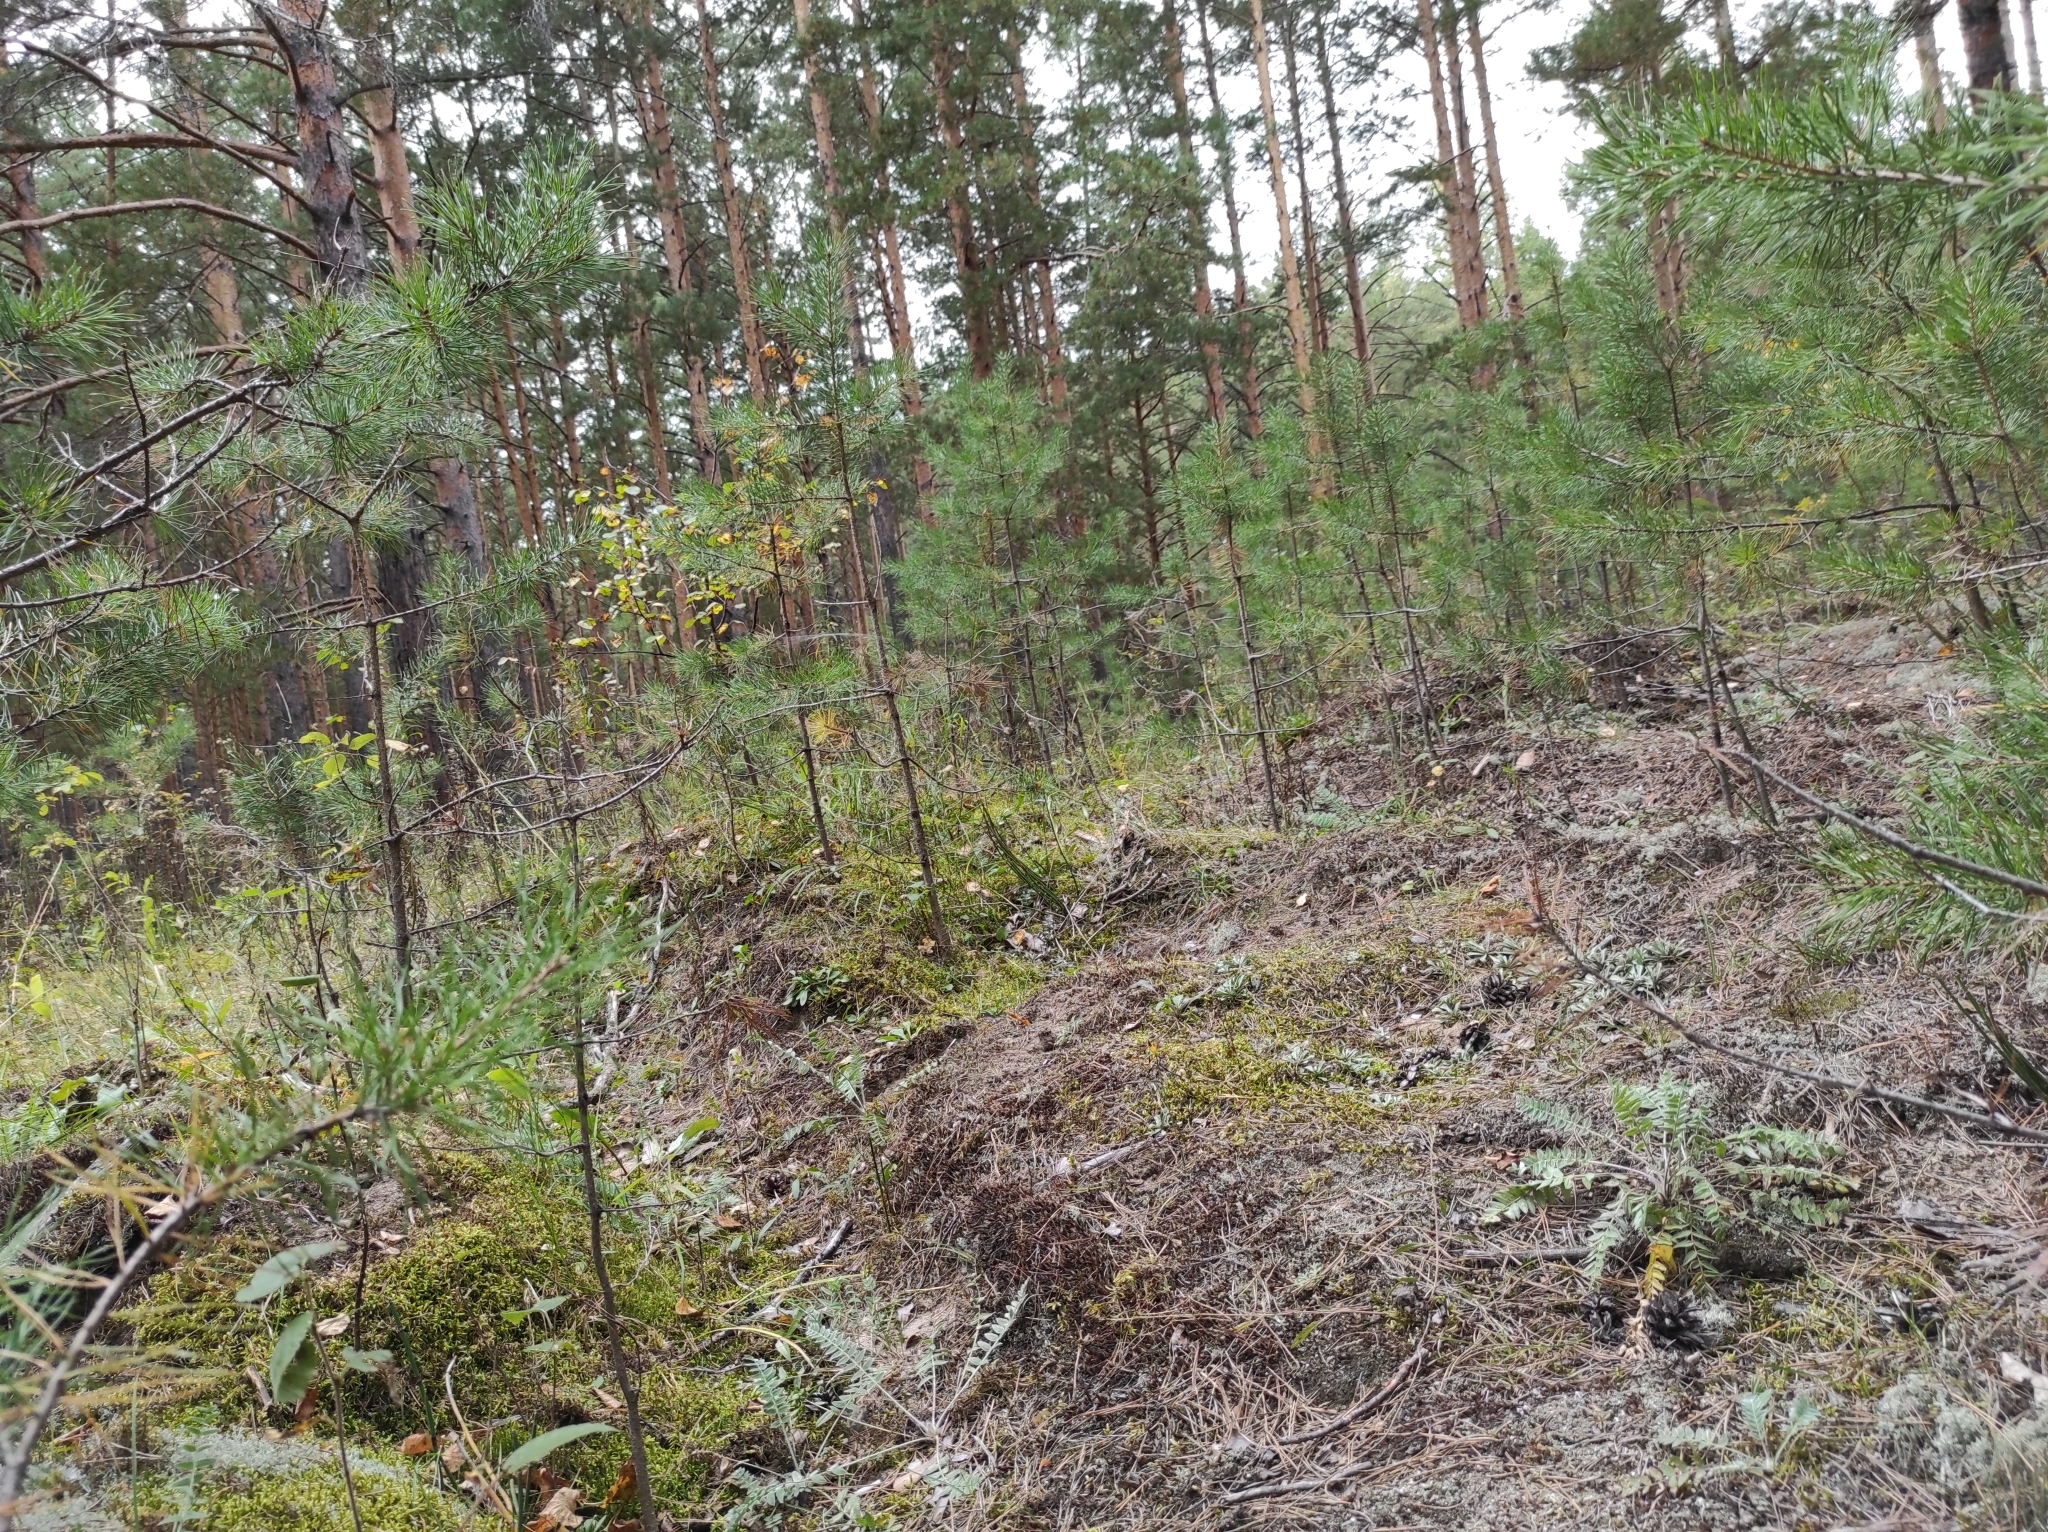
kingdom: Plantae
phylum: Tracheophyta
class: Pinopsida
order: Pinales
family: Pinaceae
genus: Pinus
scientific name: Pinus sylvestris
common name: Scots pine
